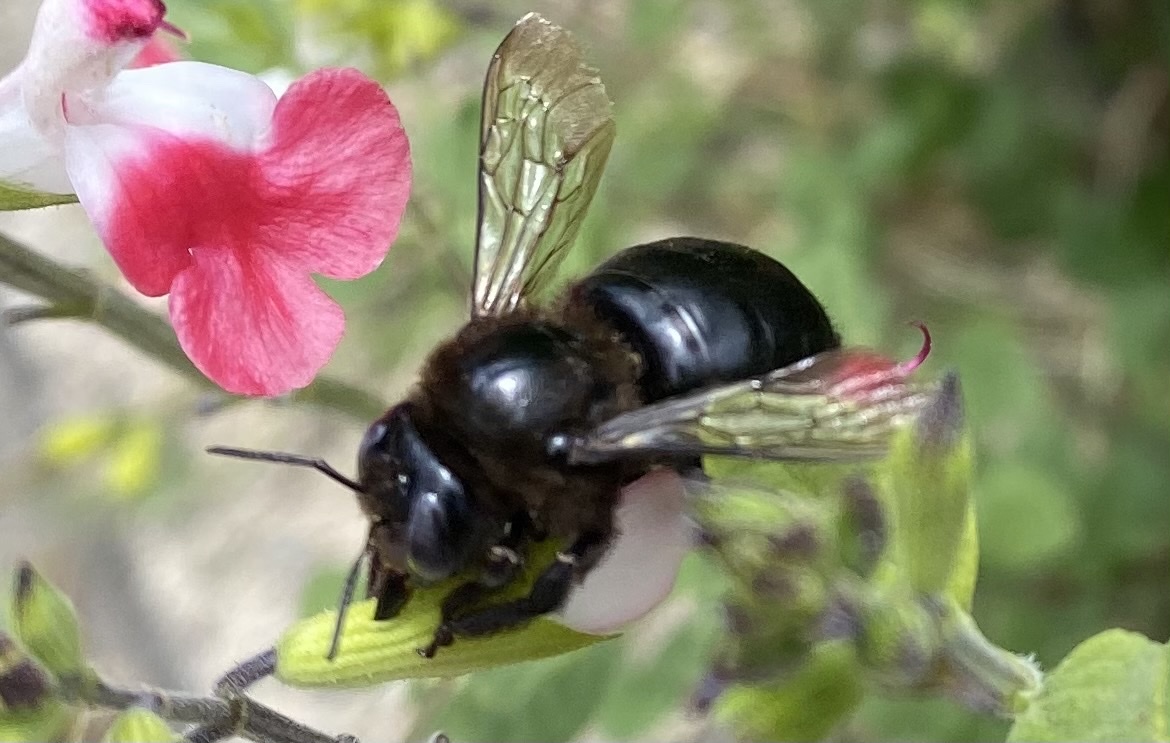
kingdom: Animalia
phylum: Arthropoda
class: Insecta
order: Hymenoptera
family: Apidae
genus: Xylocopa
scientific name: Xylocopa tabaniformis
